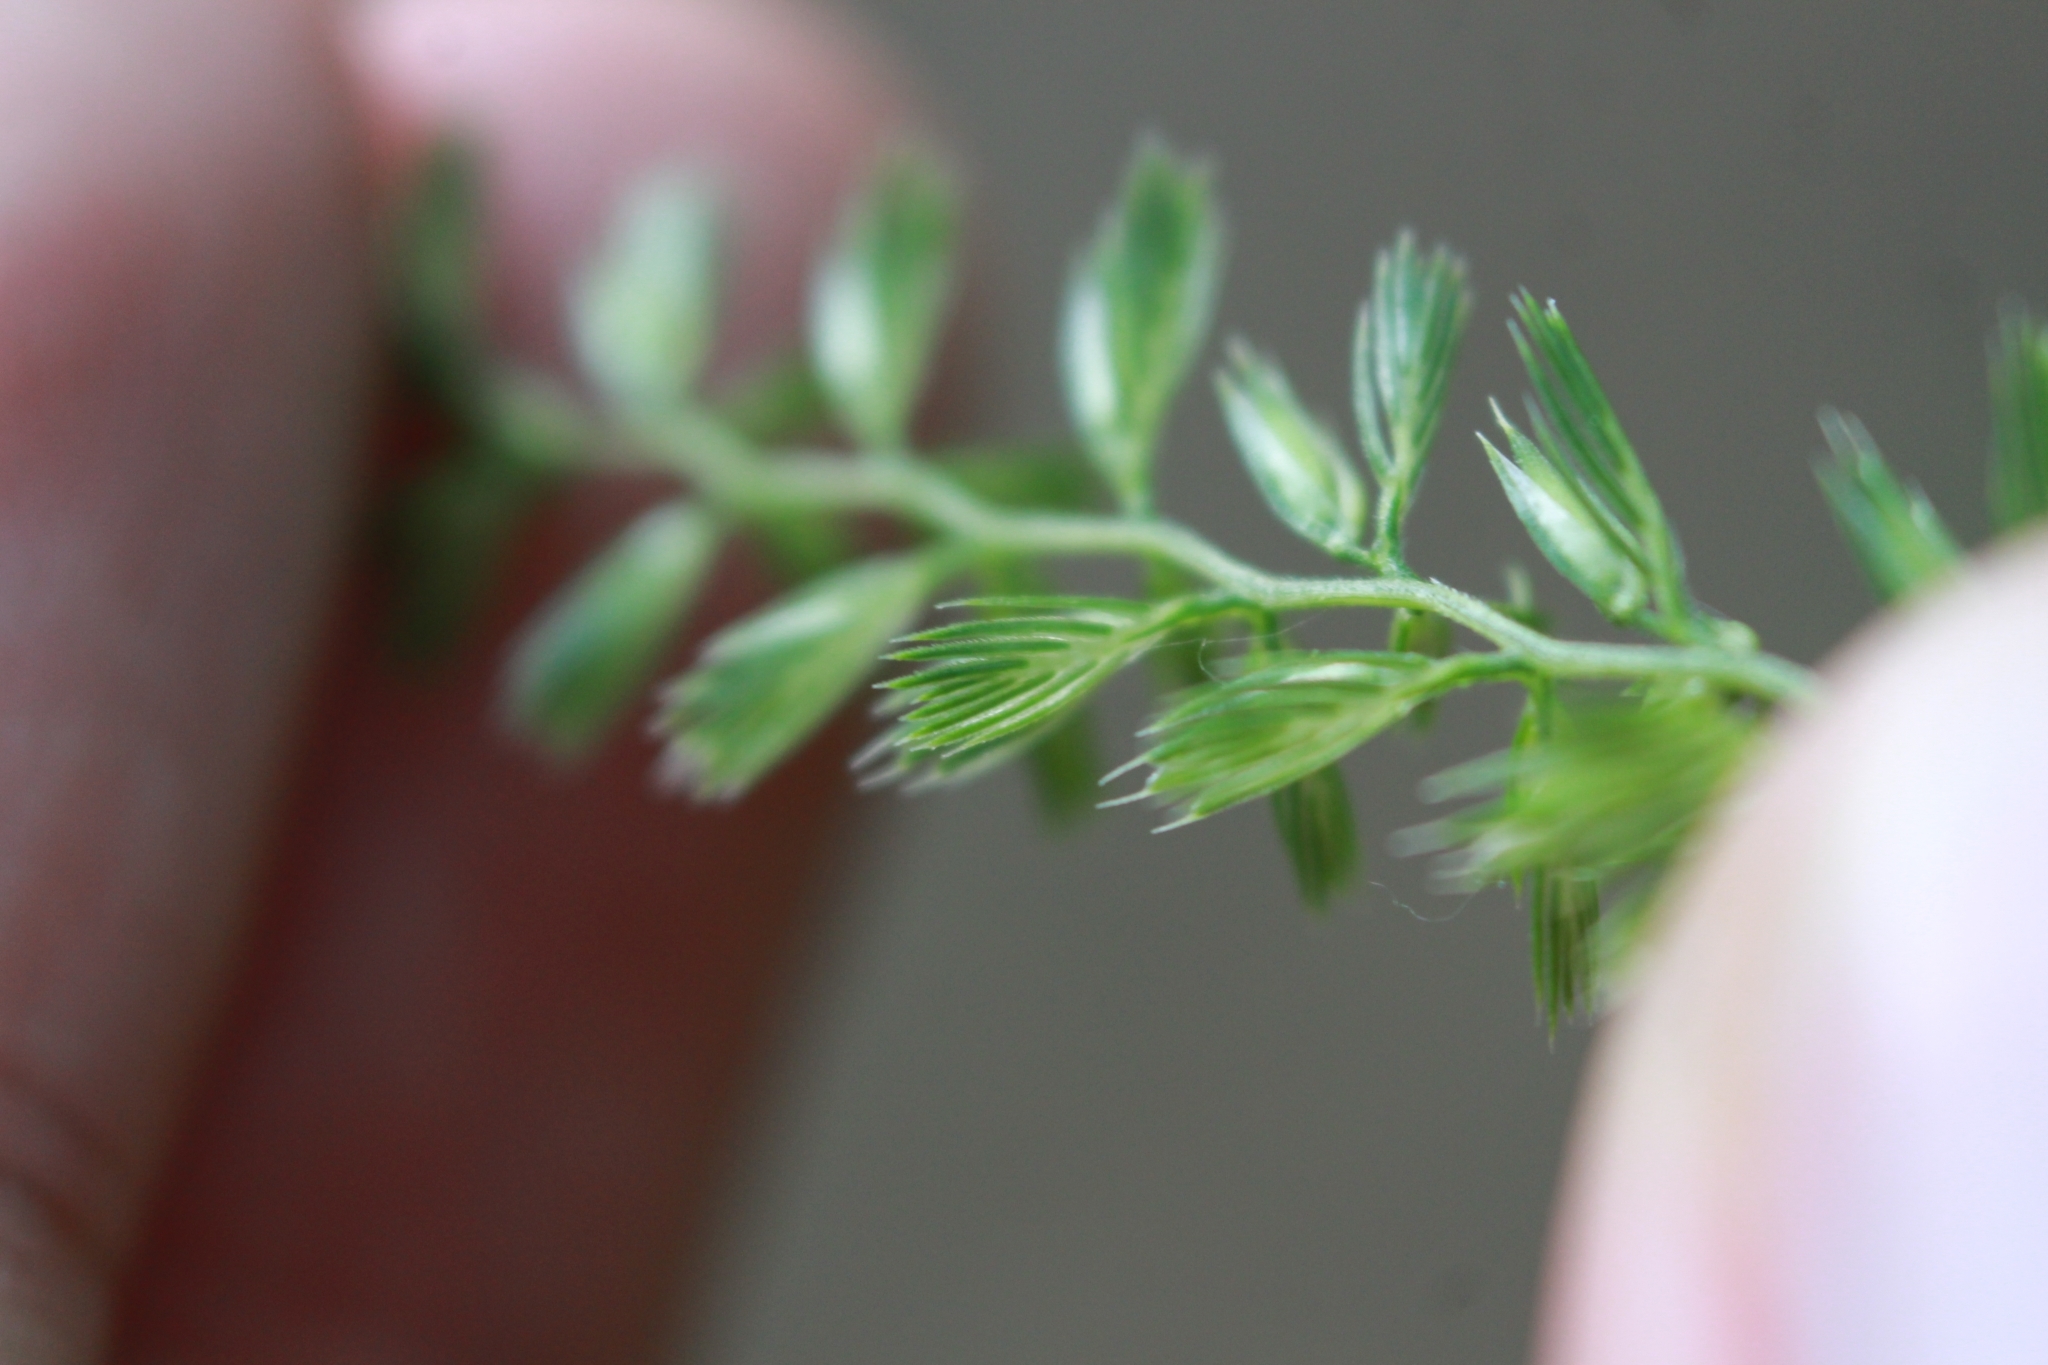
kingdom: Plantae
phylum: Tracheophyta
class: Liliopsida
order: Poales
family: Poaceae
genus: Cynosurus
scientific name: Cynosurus cristatus
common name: Crested dog's-tail
